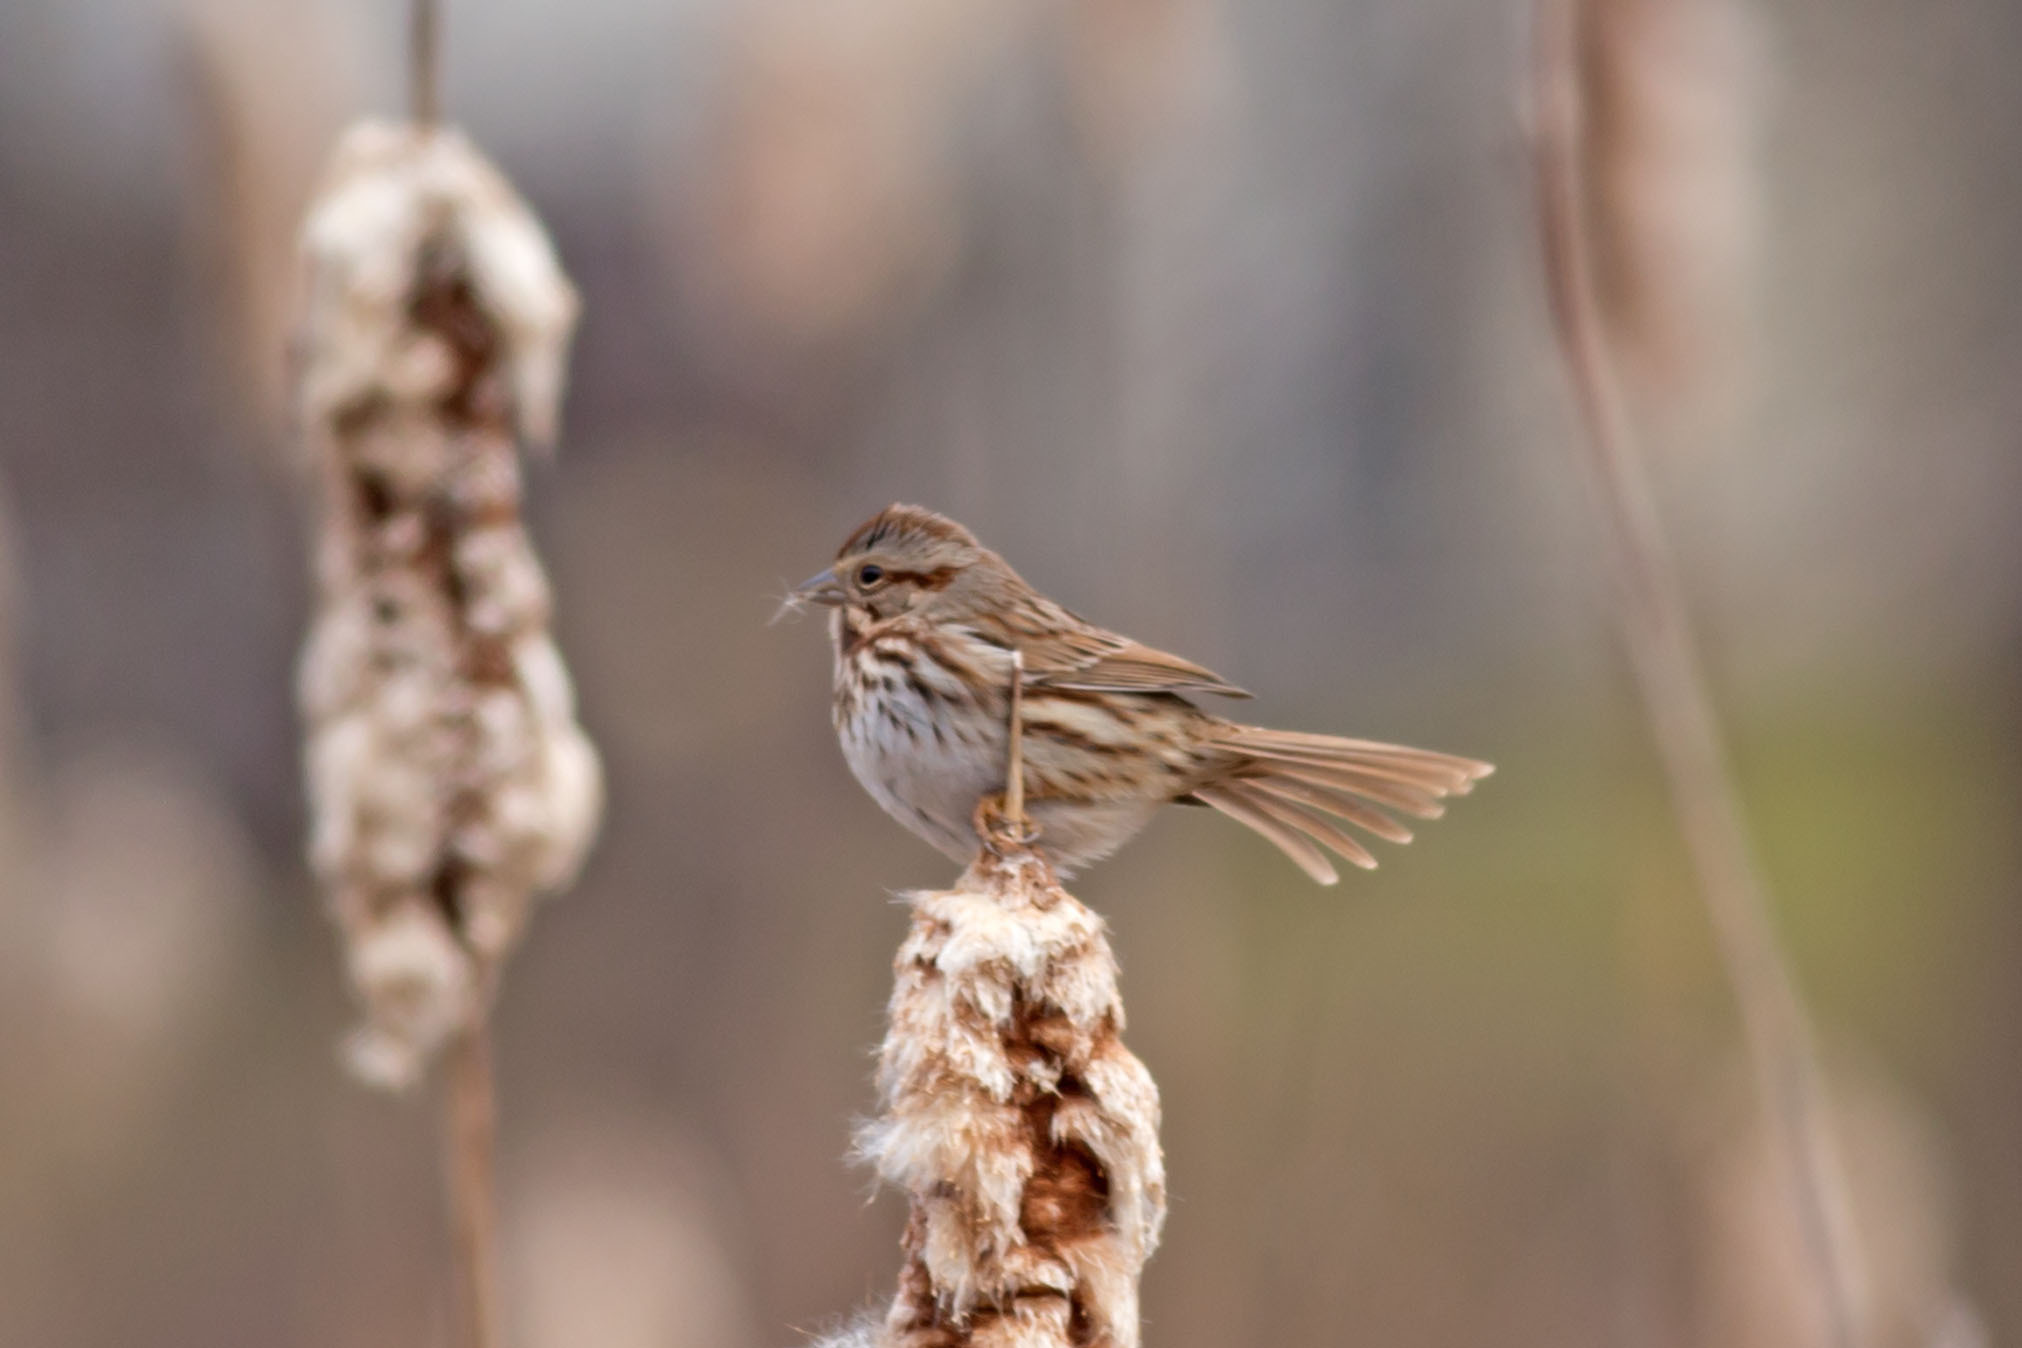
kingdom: Animalia
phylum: Chordata
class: Aves
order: Passeriformes
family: Passerellidae
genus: Melospiza
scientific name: Melospiza melodia
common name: Song sparrow
